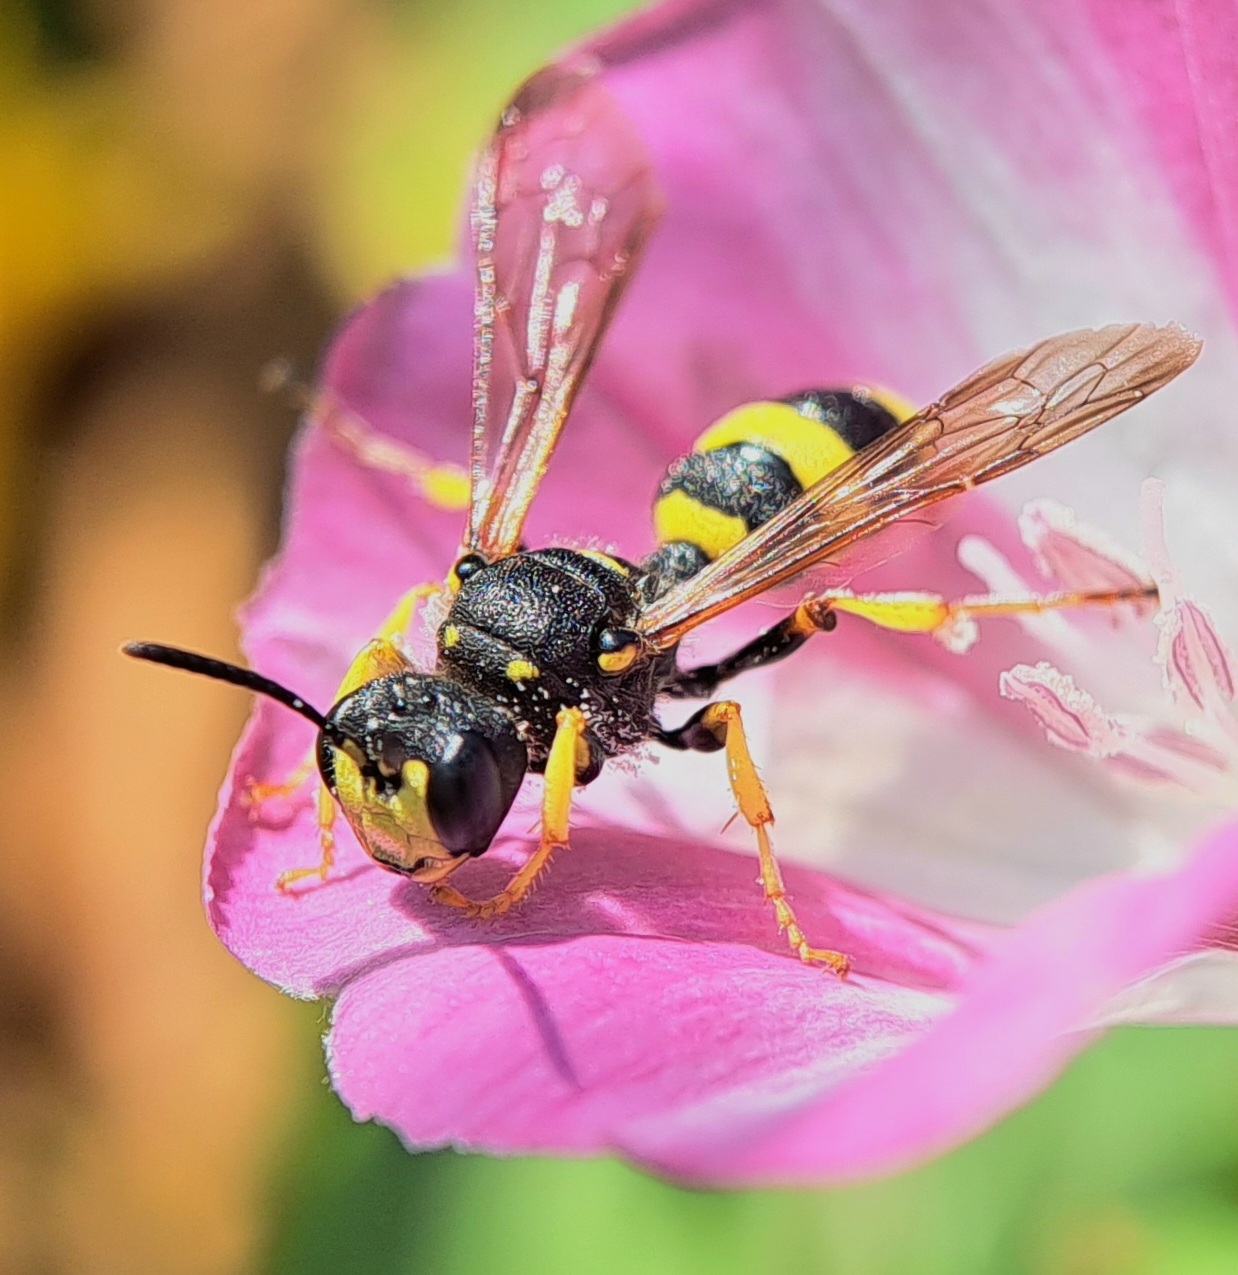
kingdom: Animalia
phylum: Arthropoda
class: Insecta
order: Hymenoptera
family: Crabronidae
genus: Cerceris
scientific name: Cerceris rybyensis
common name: Ornate tailed digger wasp
